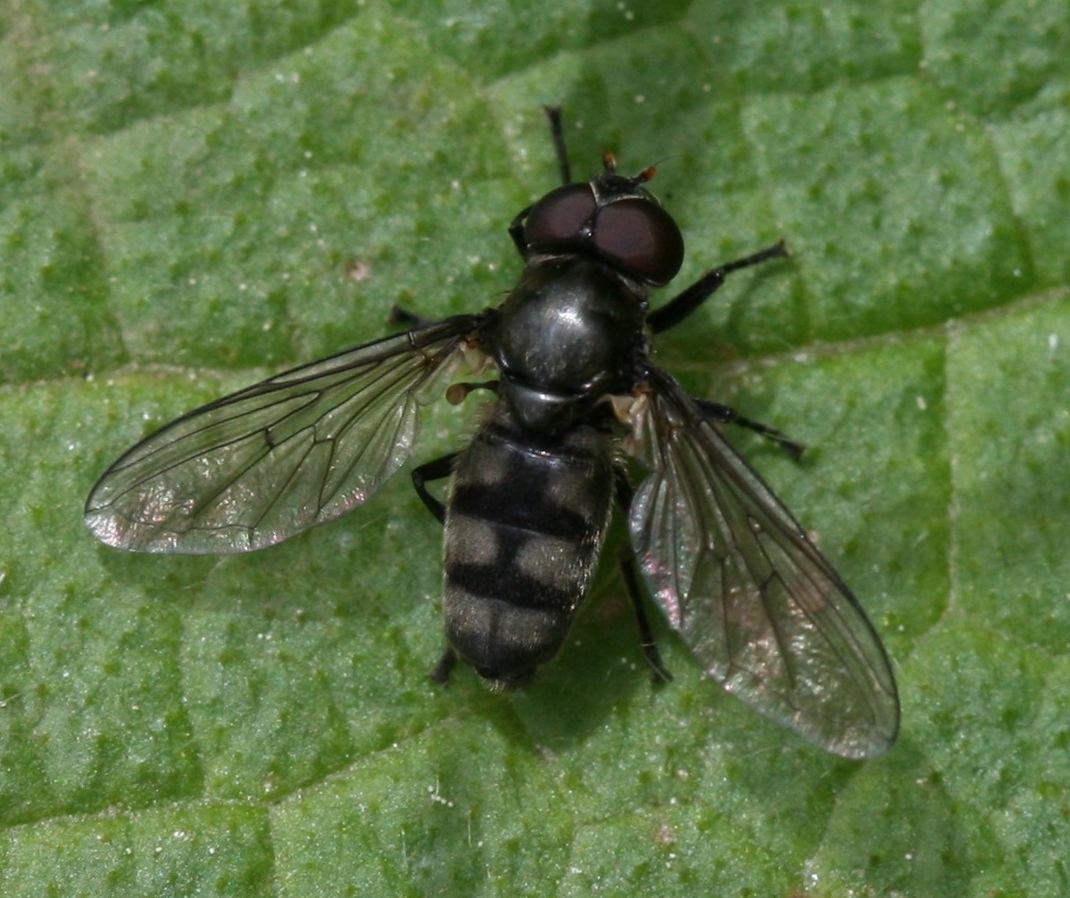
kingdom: Animalia
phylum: Arthropoda
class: Insecta
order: Diptera
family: Syrphidae
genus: Portevinia
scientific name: Portevinia maculata
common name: Ramson's hoverfly
